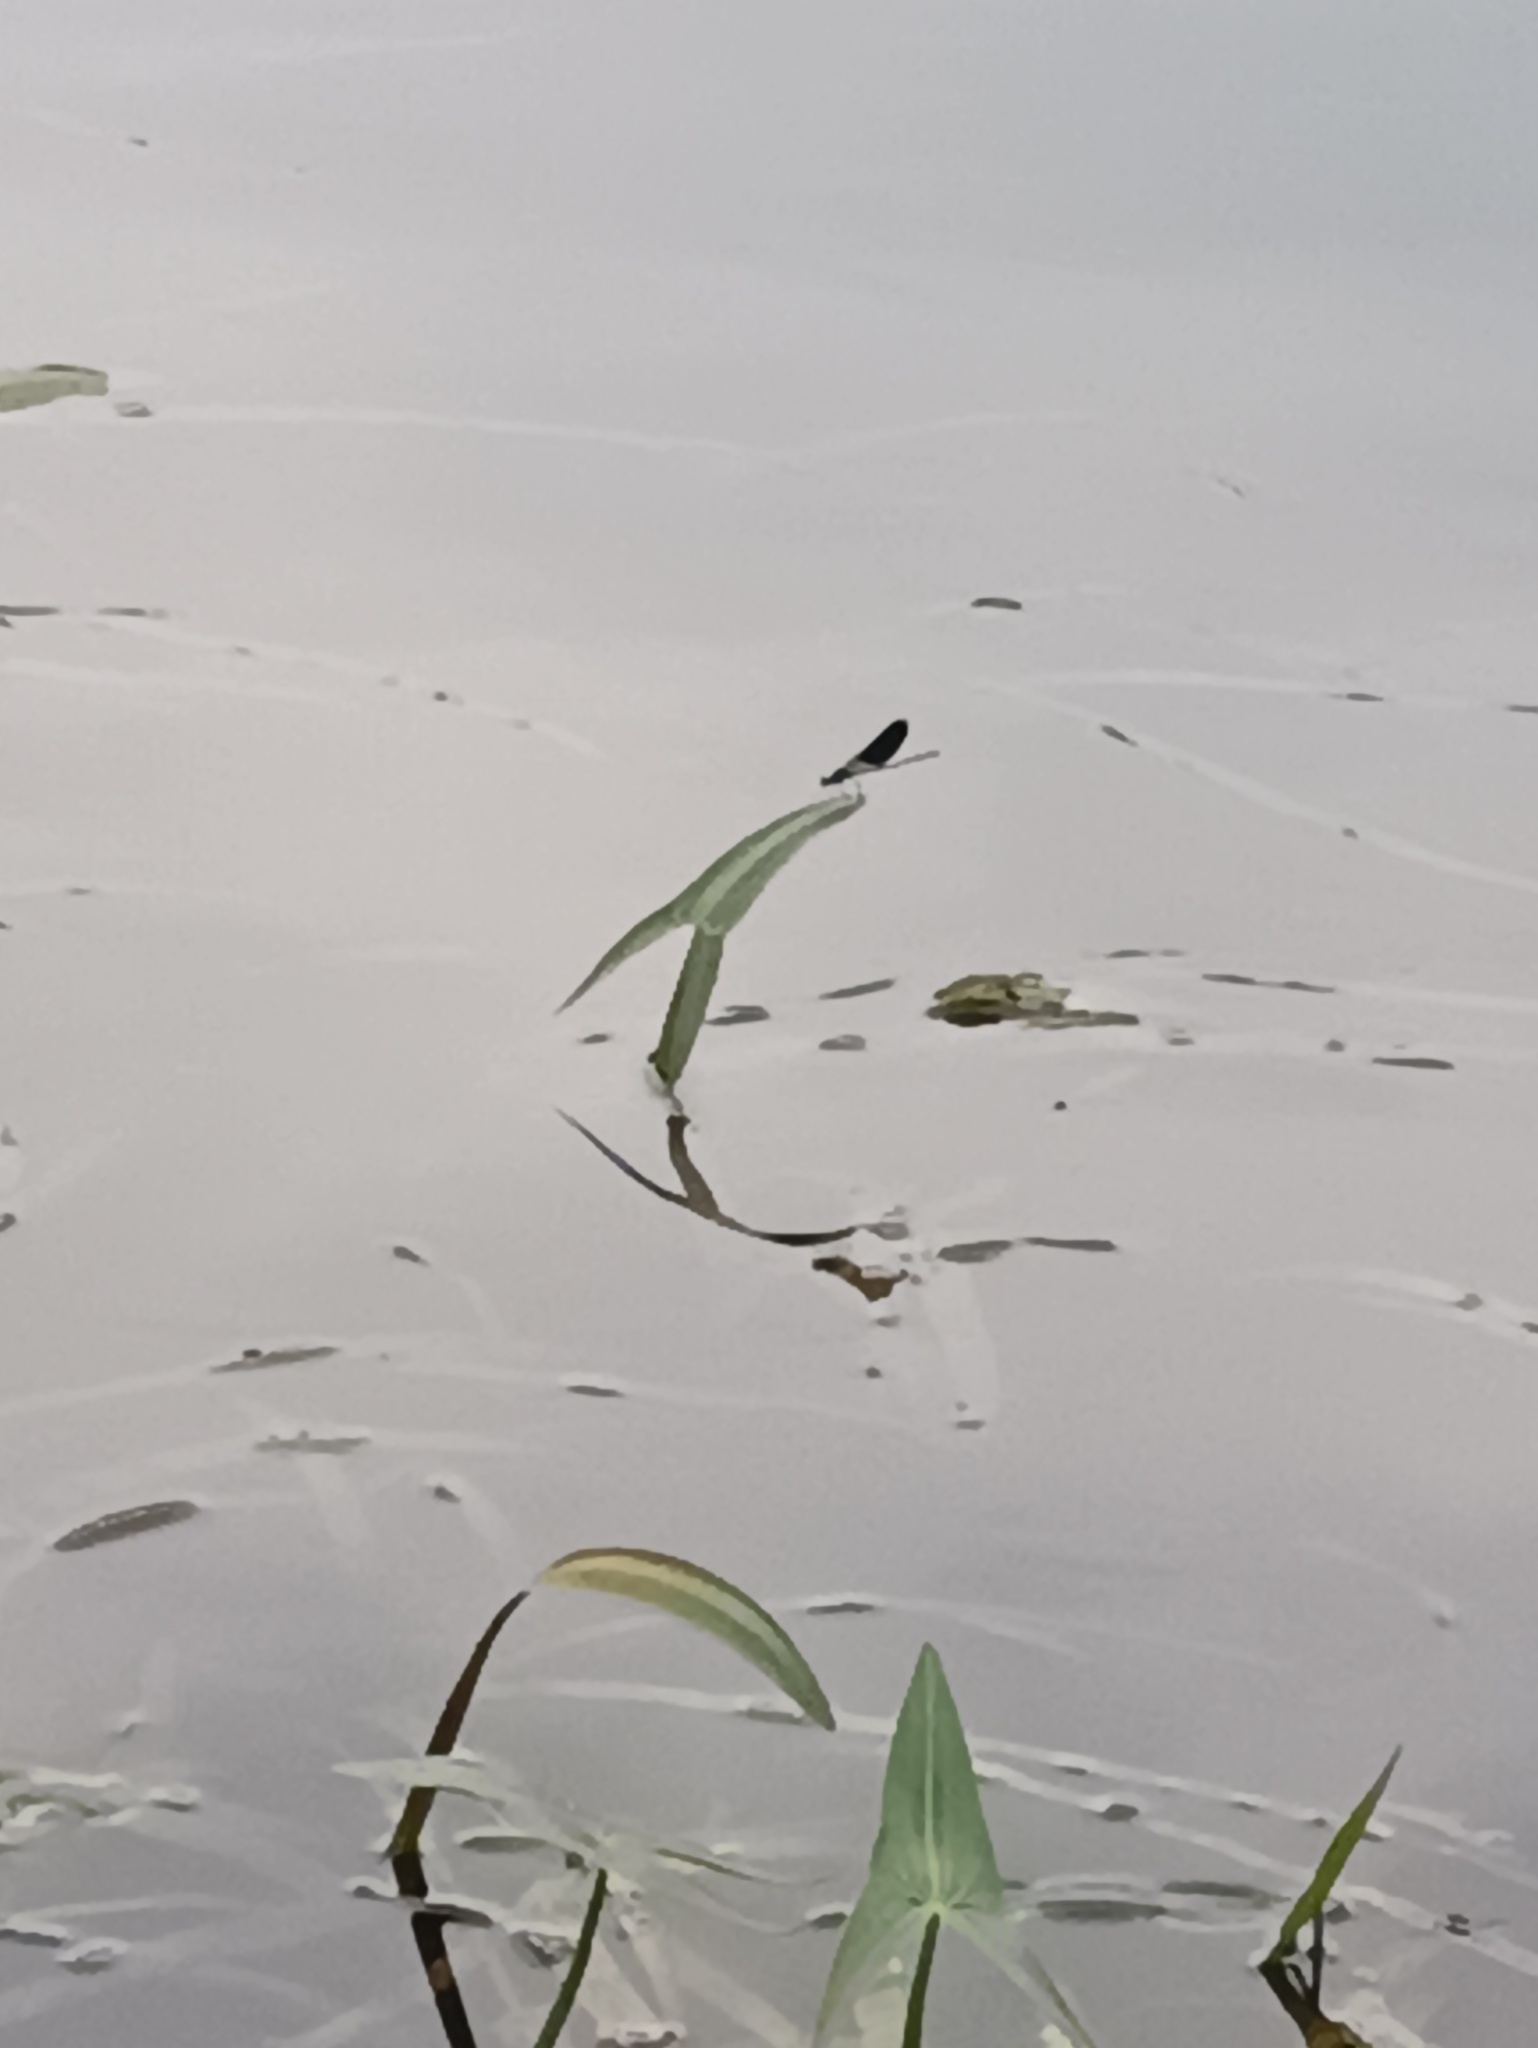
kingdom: Animalia
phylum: Arthropoda
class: Insecta
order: Odonata
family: Calopterygidae
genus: Calopteryx
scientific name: Calopteryx splendens
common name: Banded demoiselle
